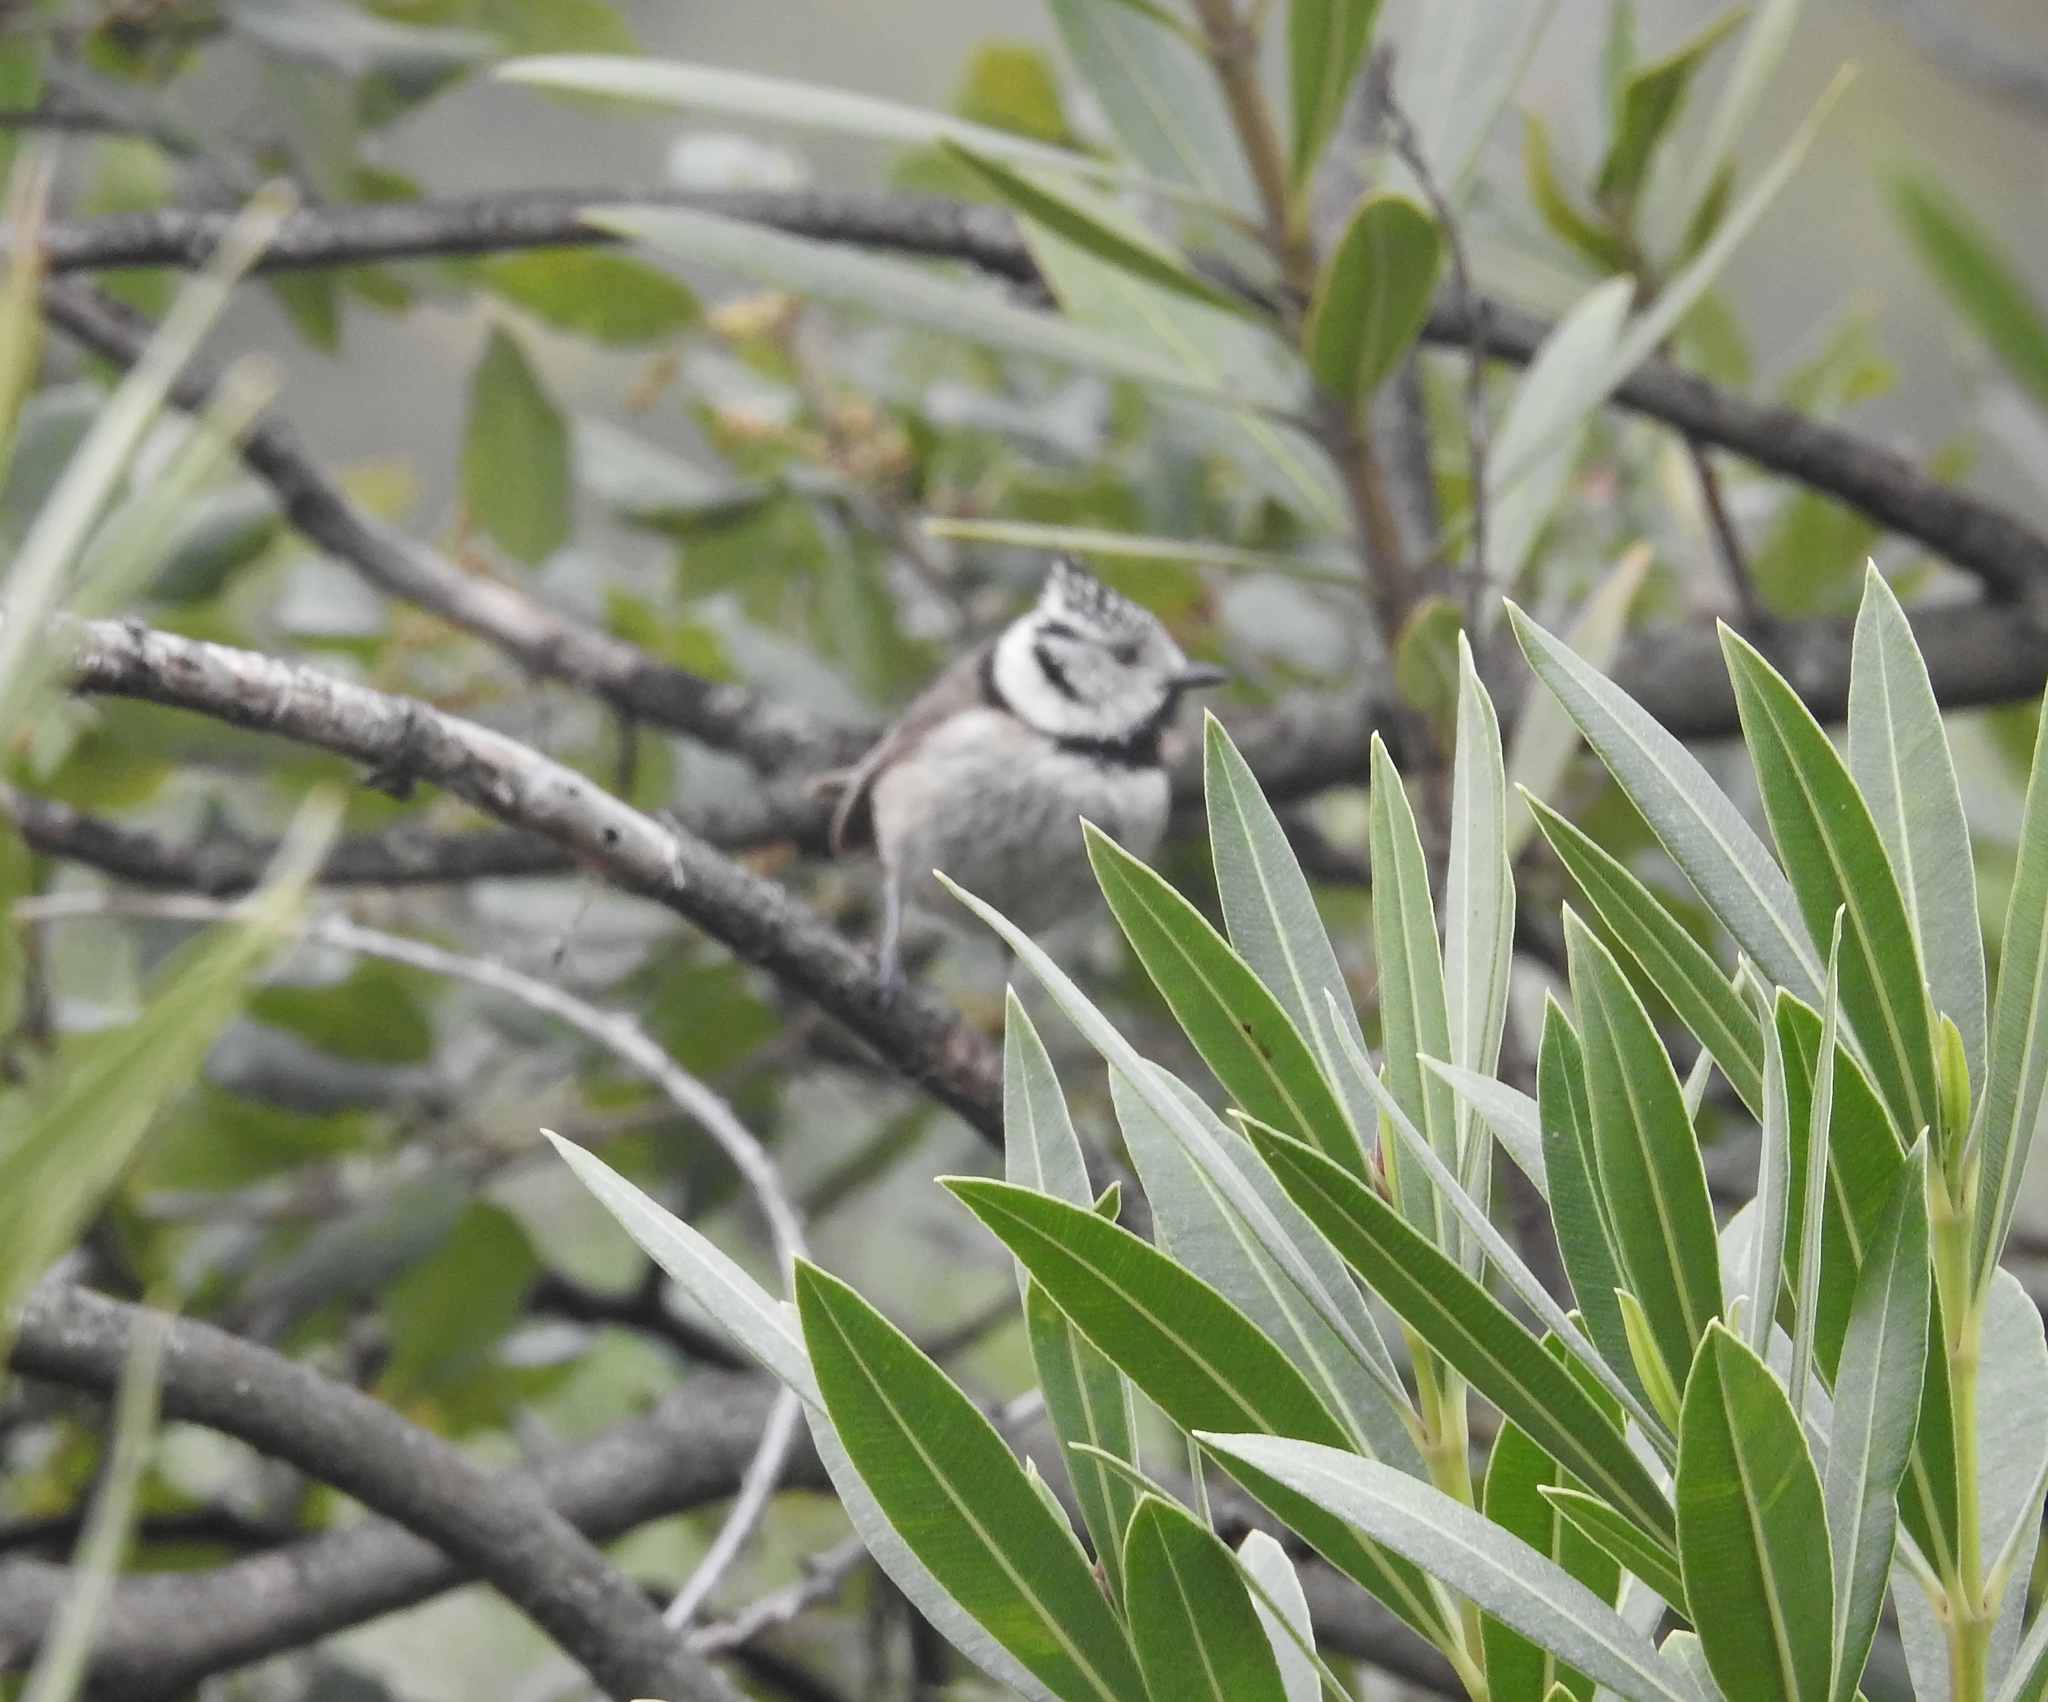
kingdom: Animalia
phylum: Chordata
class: Aves
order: Passeriformes
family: Paridae
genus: Lophophanes
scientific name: Lophophanes cristatus
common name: European crested tit
